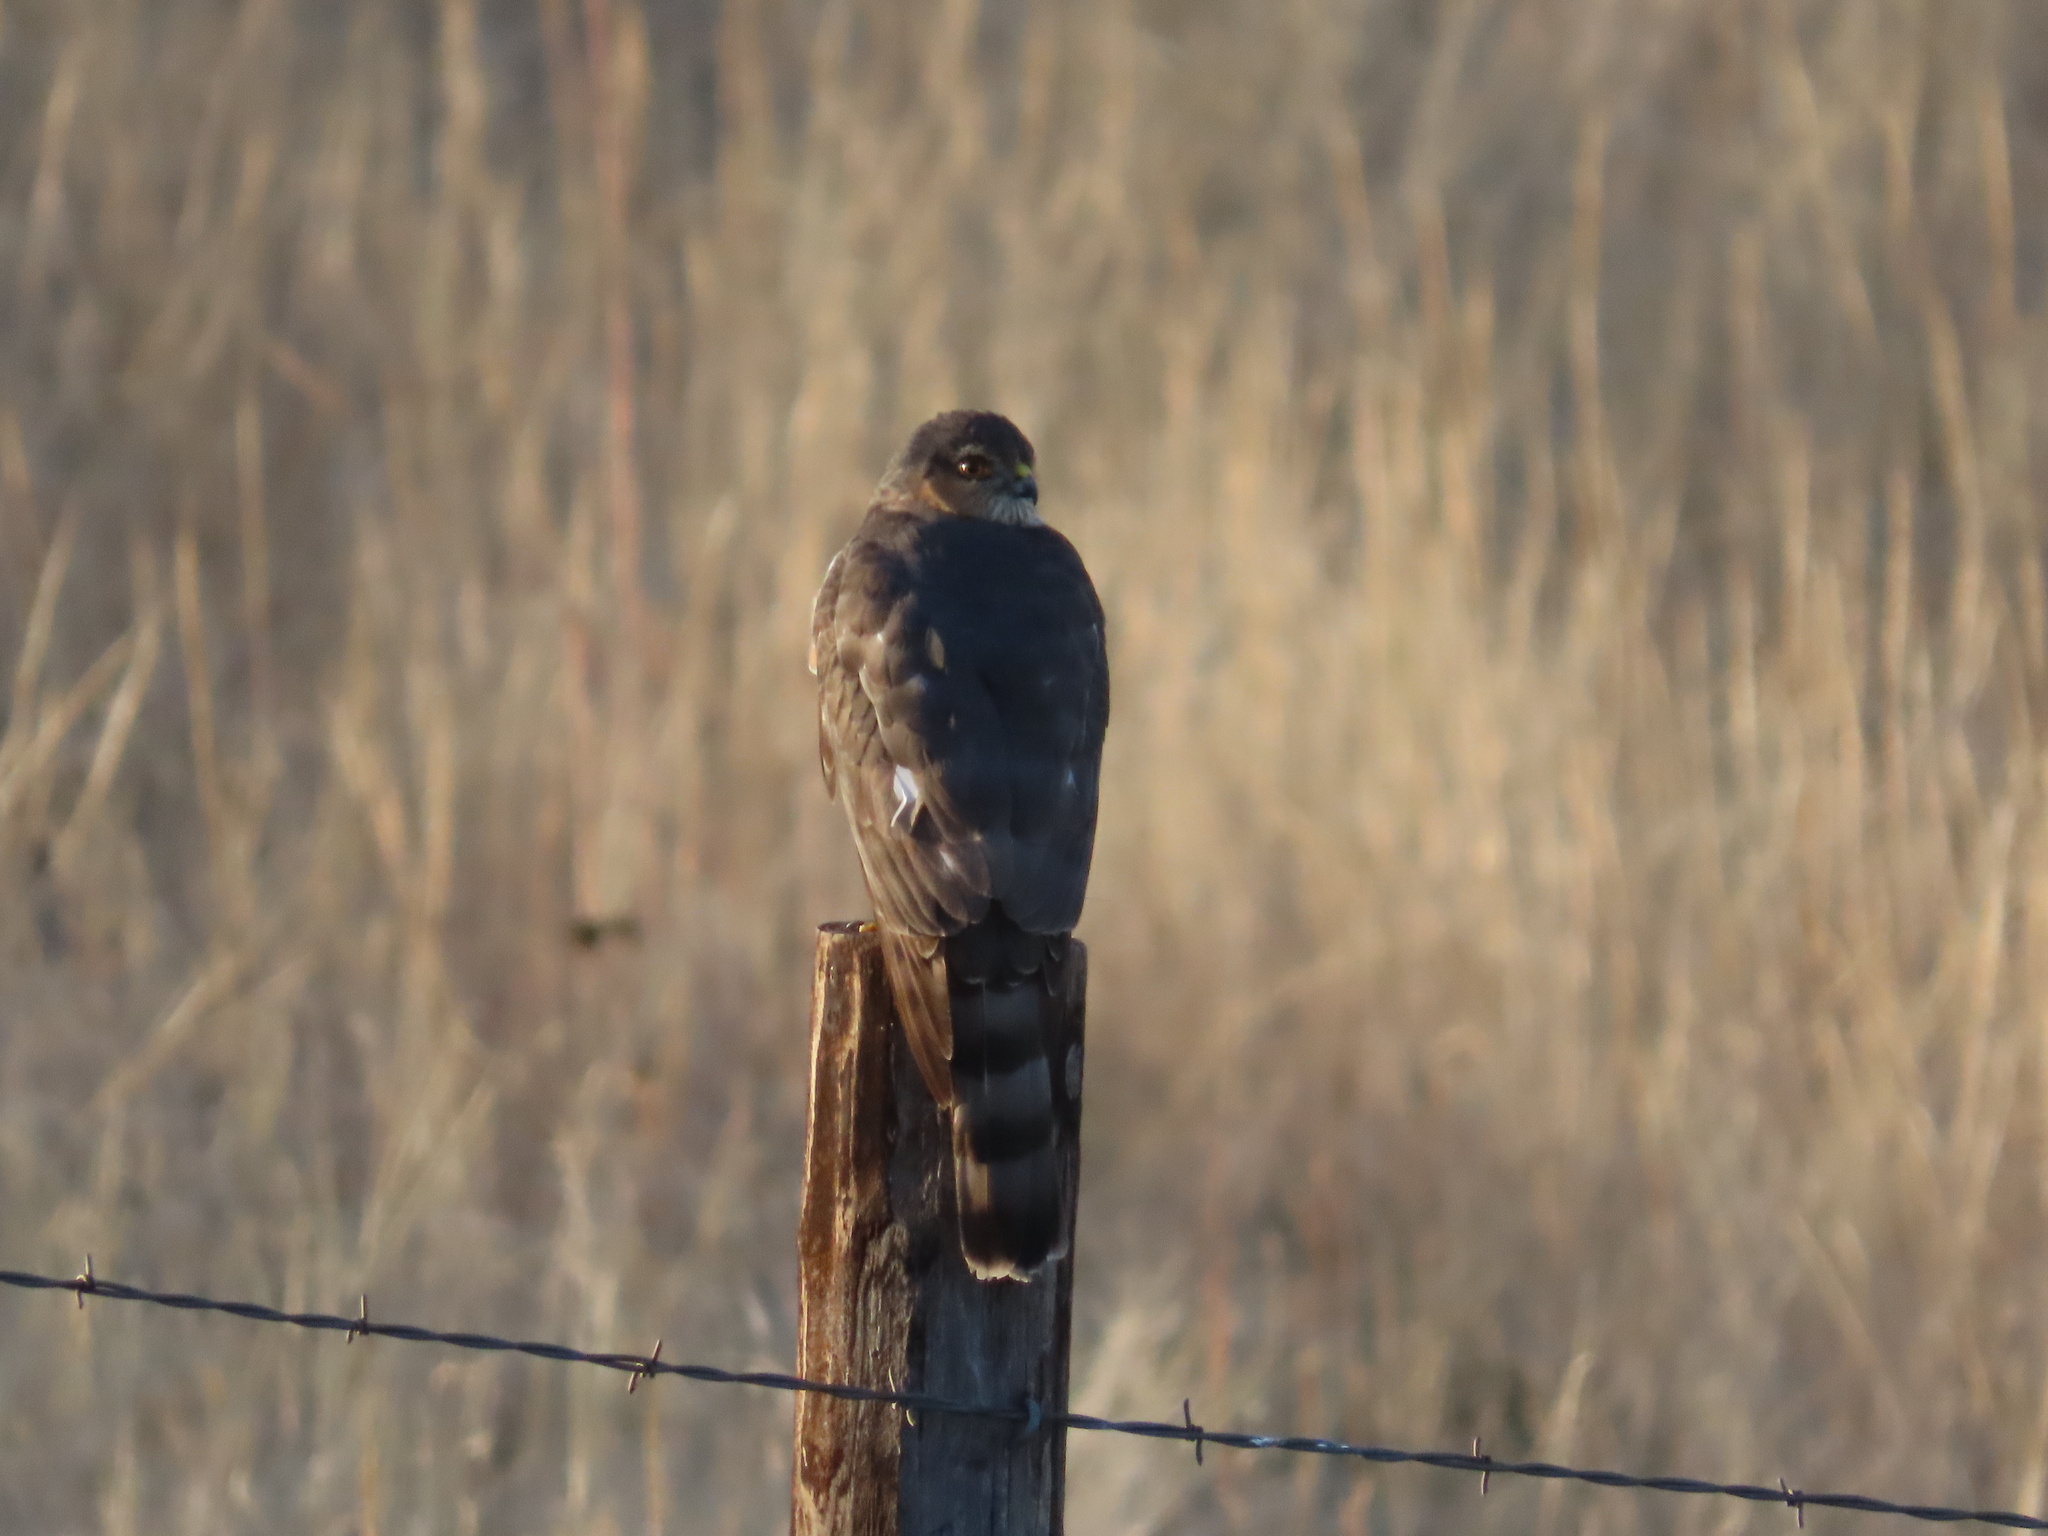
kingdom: Animalia
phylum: Chordata
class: Aves
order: Accipitriformes
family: Accipitridae
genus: Accipiter
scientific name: Accipiter striatus
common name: Sharp-shinned hawk
